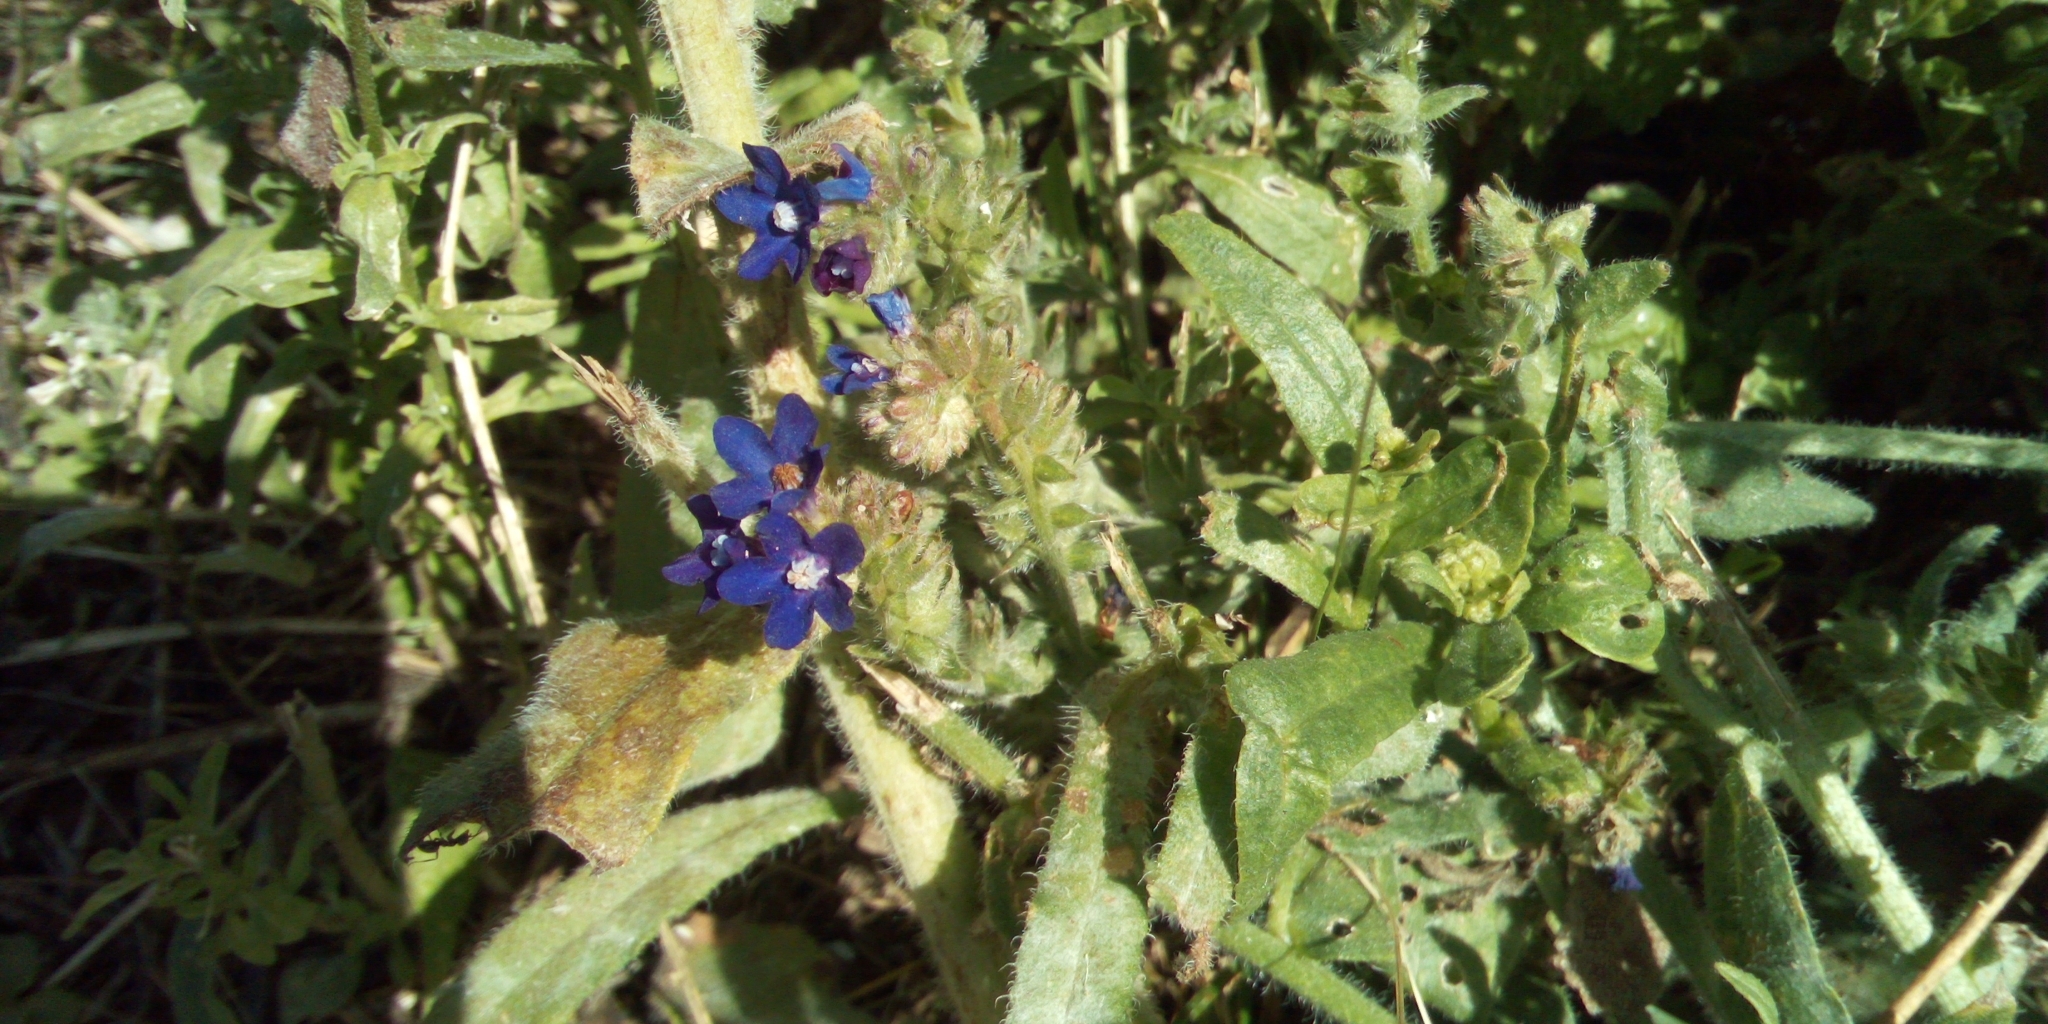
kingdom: Plantae
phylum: Tracheophyta
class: Magnoliopsida
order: Boraginales
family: Boraginaceae
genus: Anchusa
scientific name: Anchusa officinalis
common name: Alkanet
